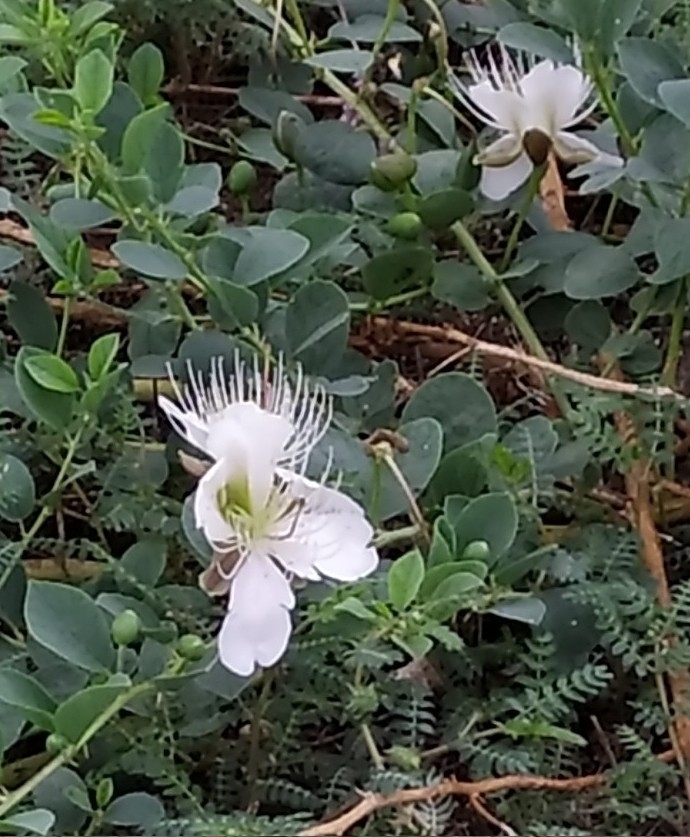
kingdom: Plantae
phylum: Tracheophyta
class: Magnoliopsida
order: Brassicales
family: Capparaceae
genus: Capparis
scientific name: Capparis spinosa
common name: Caper
